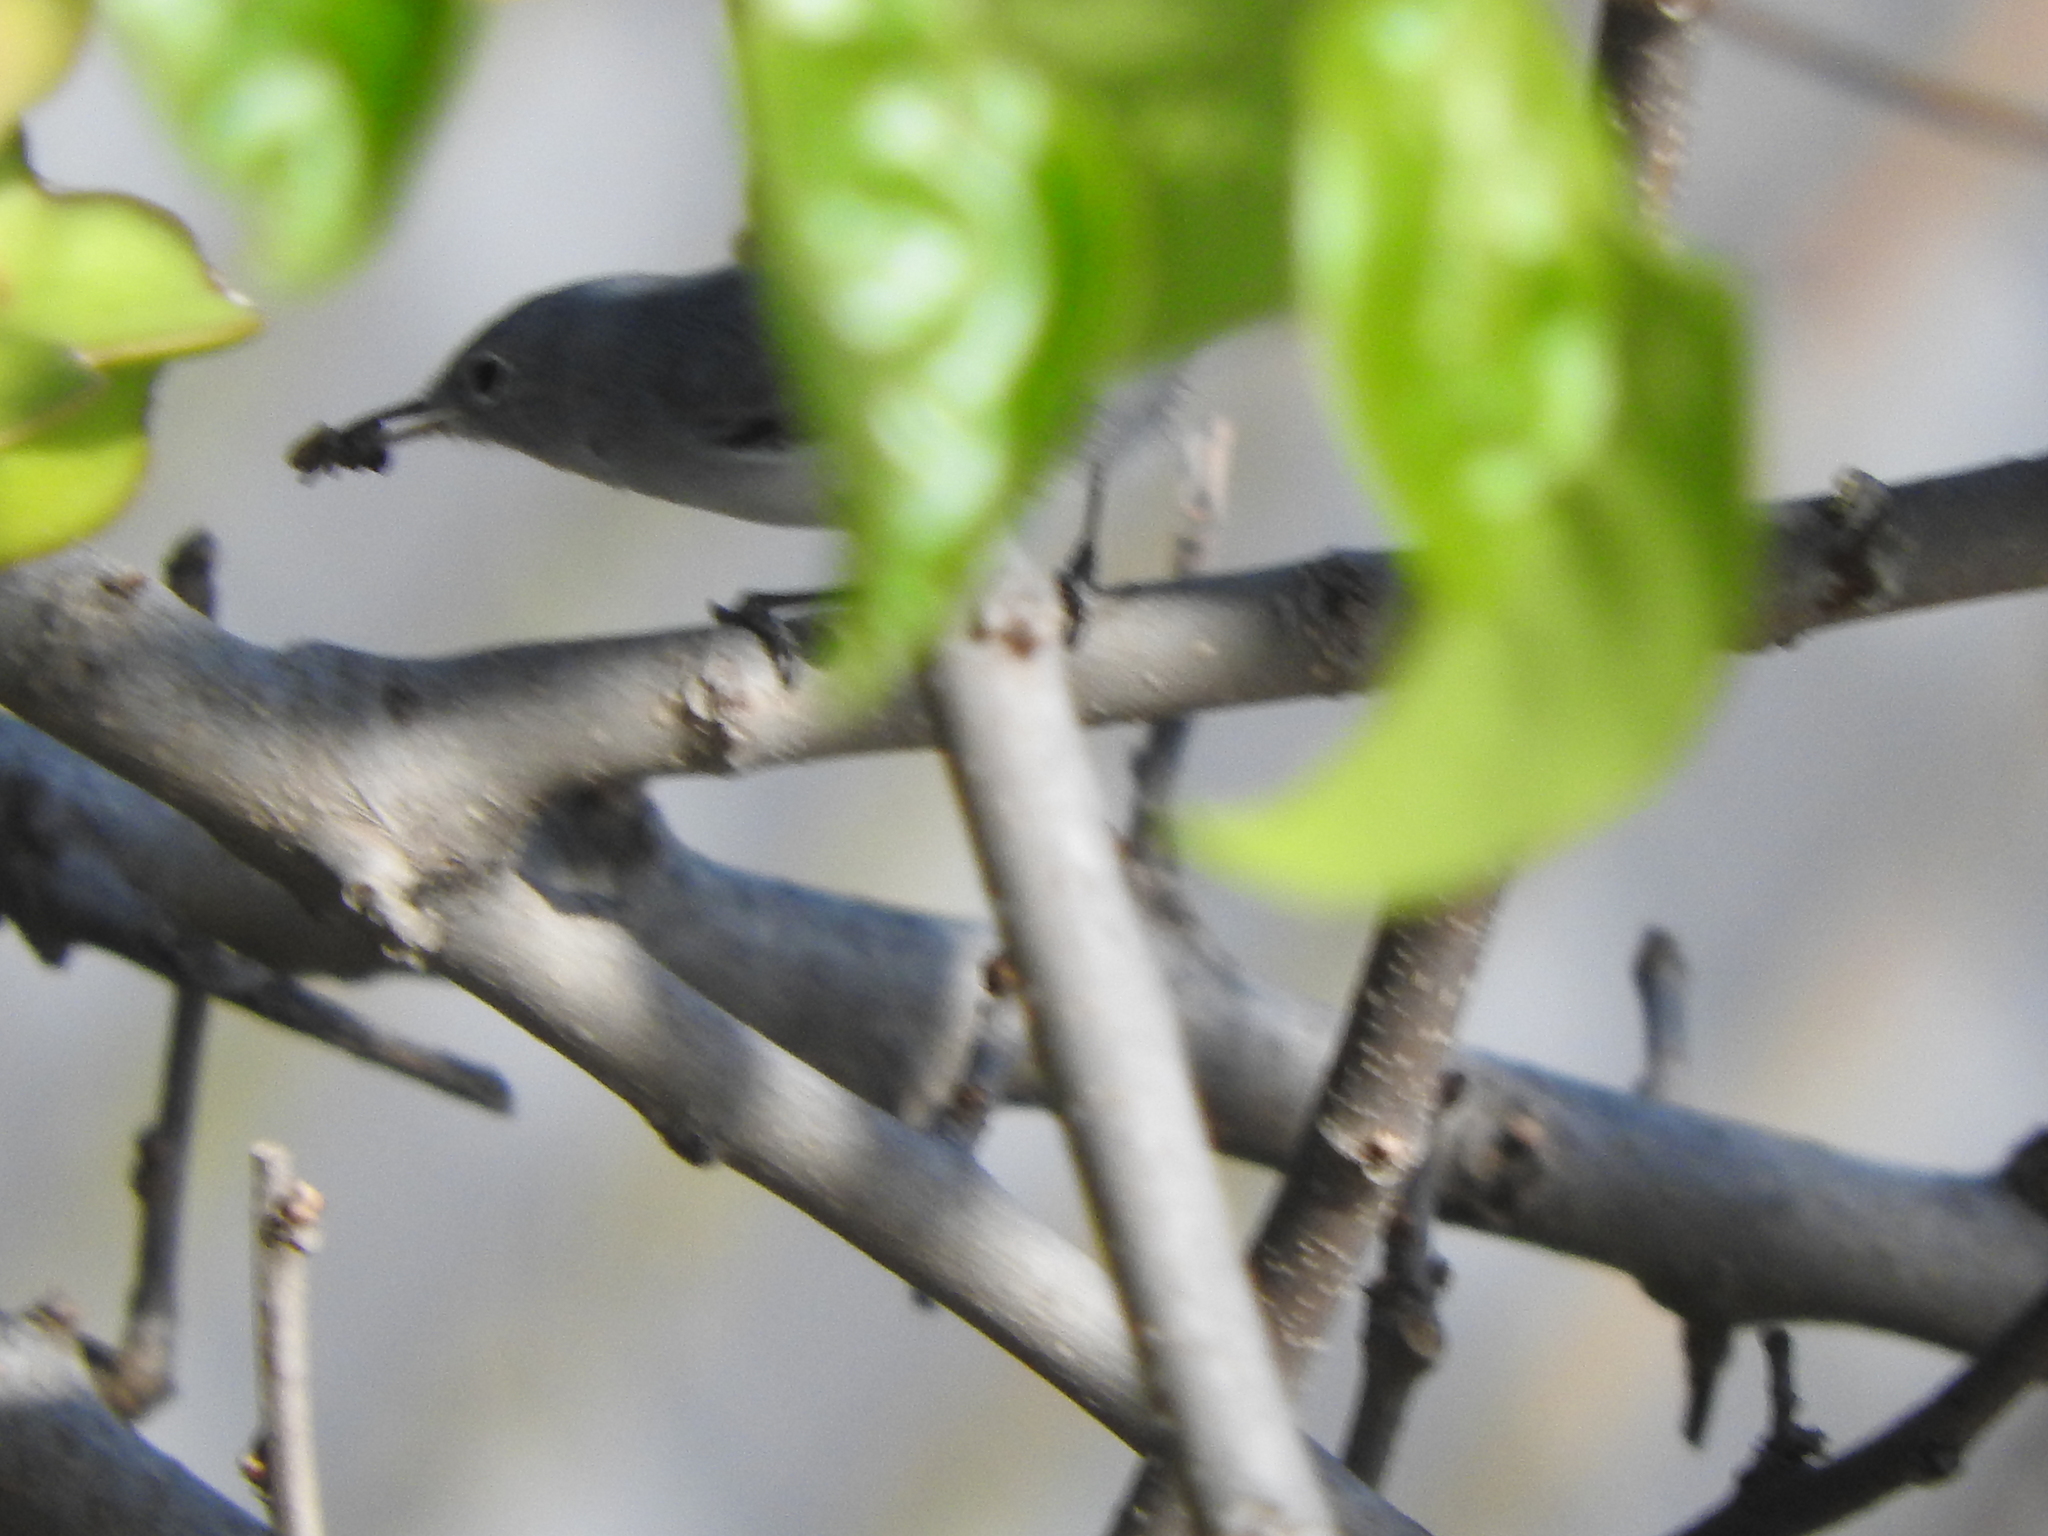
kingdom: Animalia
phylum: Chordata
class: Aves
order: Passeriformes
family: Polioptilidae
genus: Polioptila
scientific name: Polioptila caerulea
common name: Blue-gray gnatcatcher
